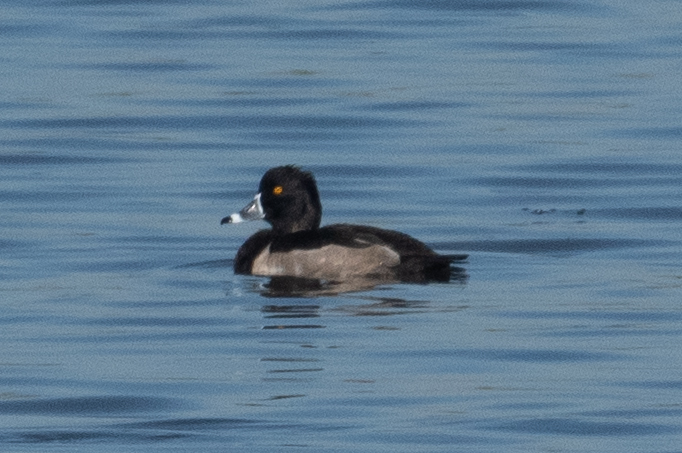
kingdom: Animalia
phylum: Chordata
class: Aves
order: Anseriformes
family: Anatidae
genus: Aythya
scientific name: Aythya collaris
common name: Ring-necked duck
